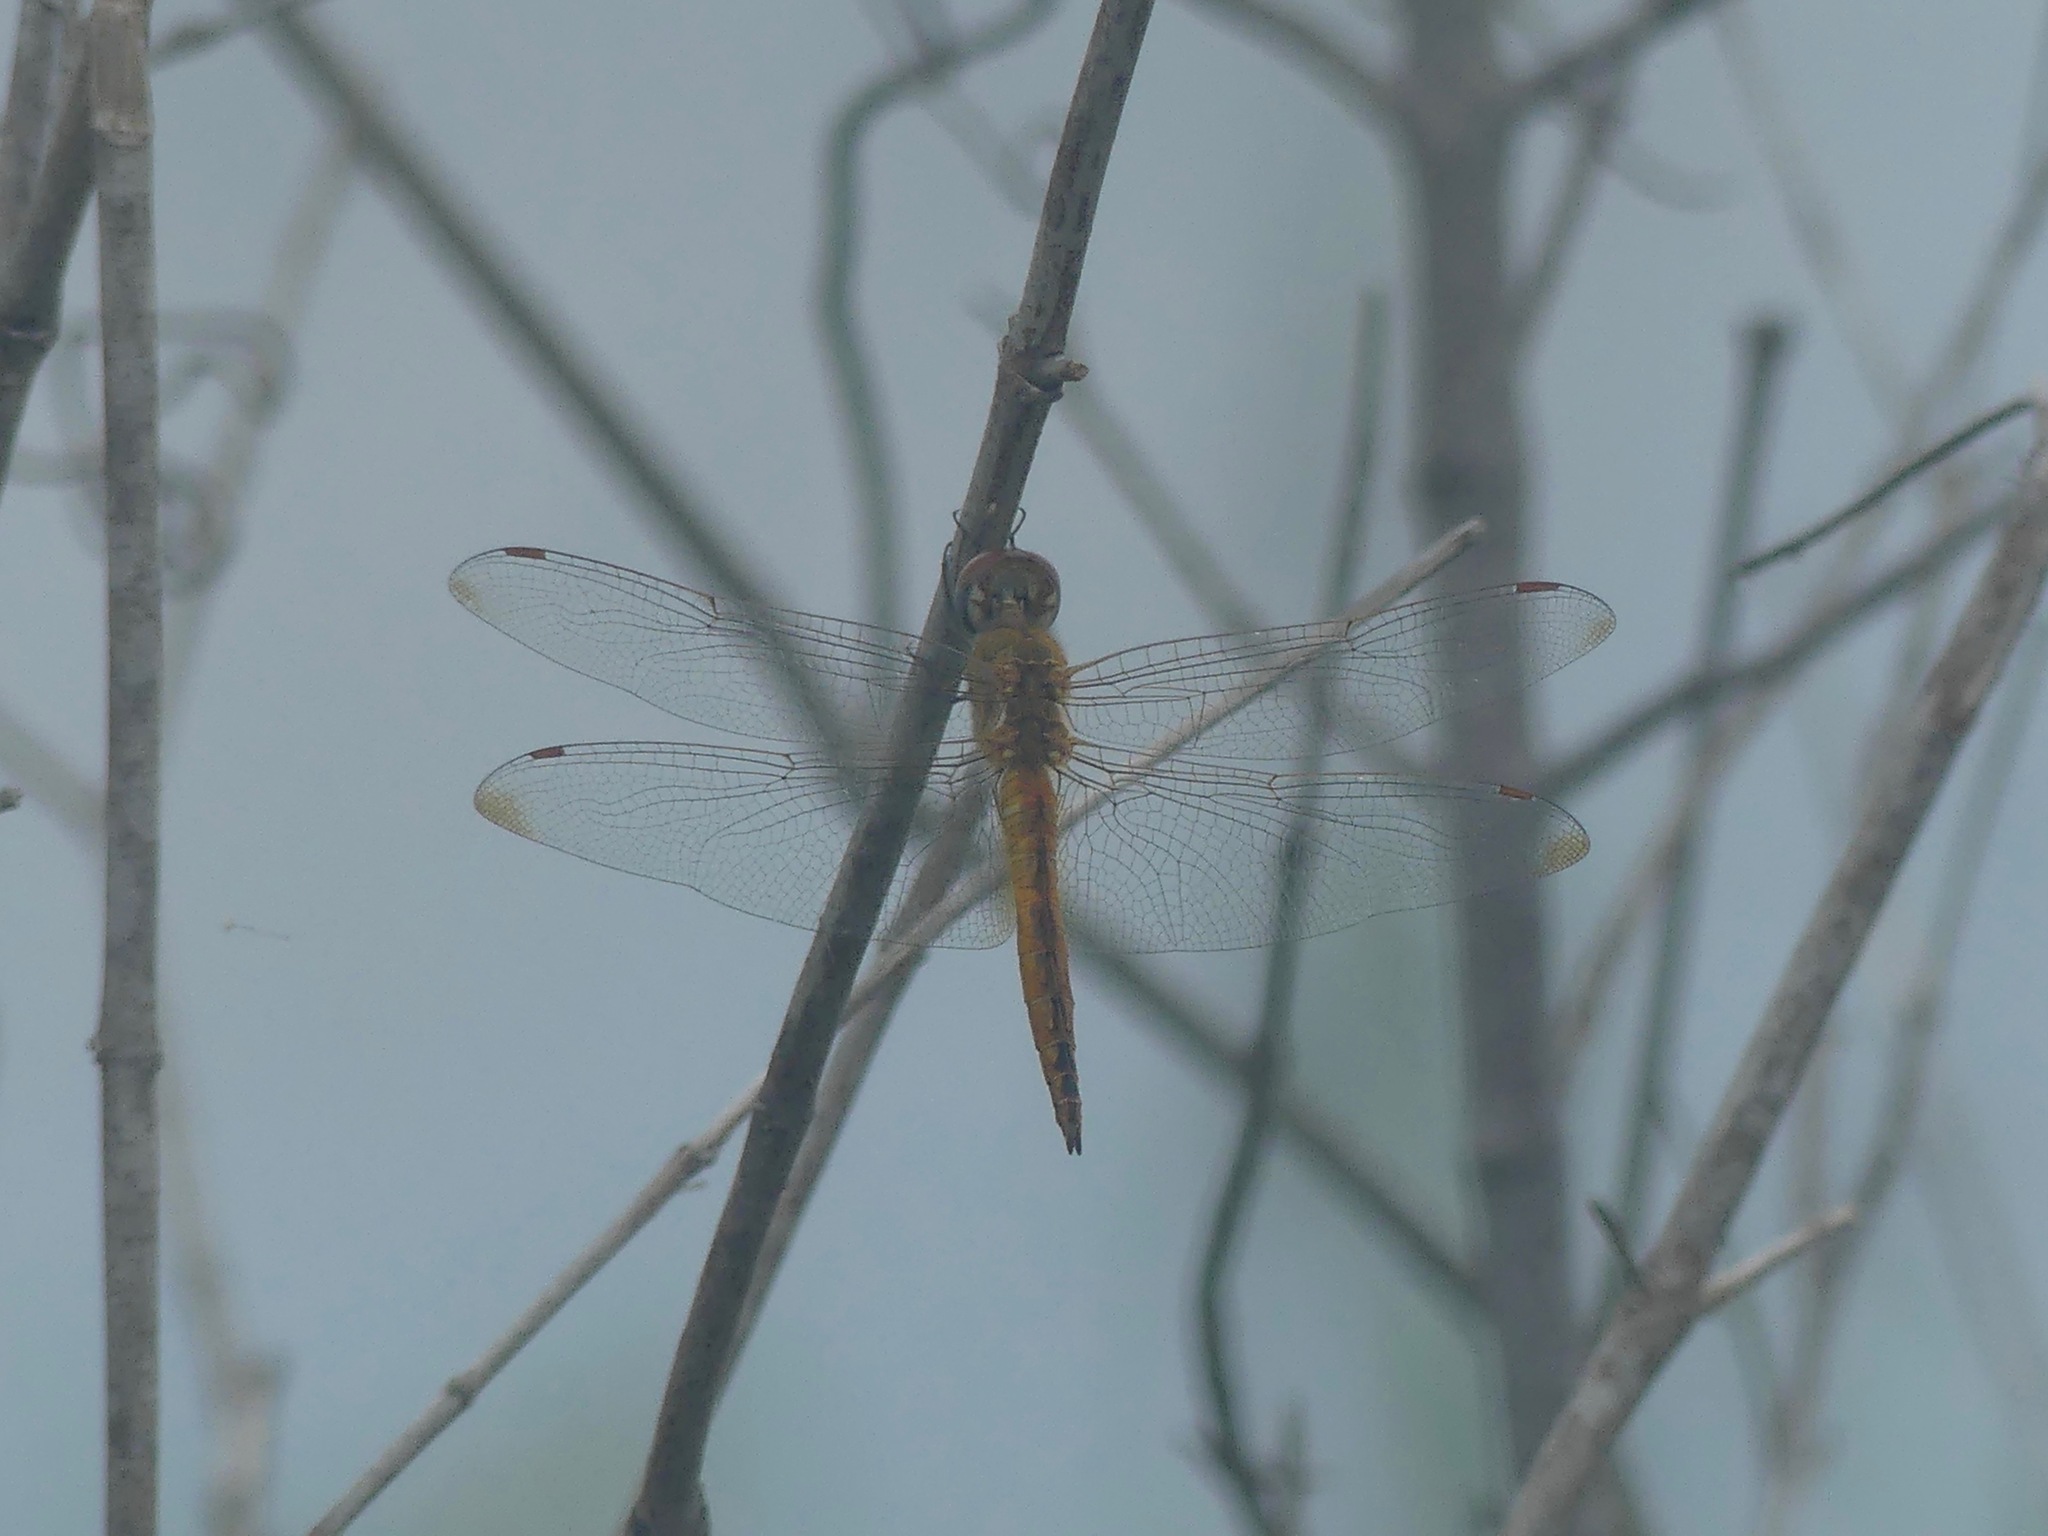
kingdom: Animalia
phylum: Arthropoda
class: Insecta
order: Odonata
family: Libellulidae
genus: Pantala
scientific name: Pantala flavescens
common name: Wandering glider
